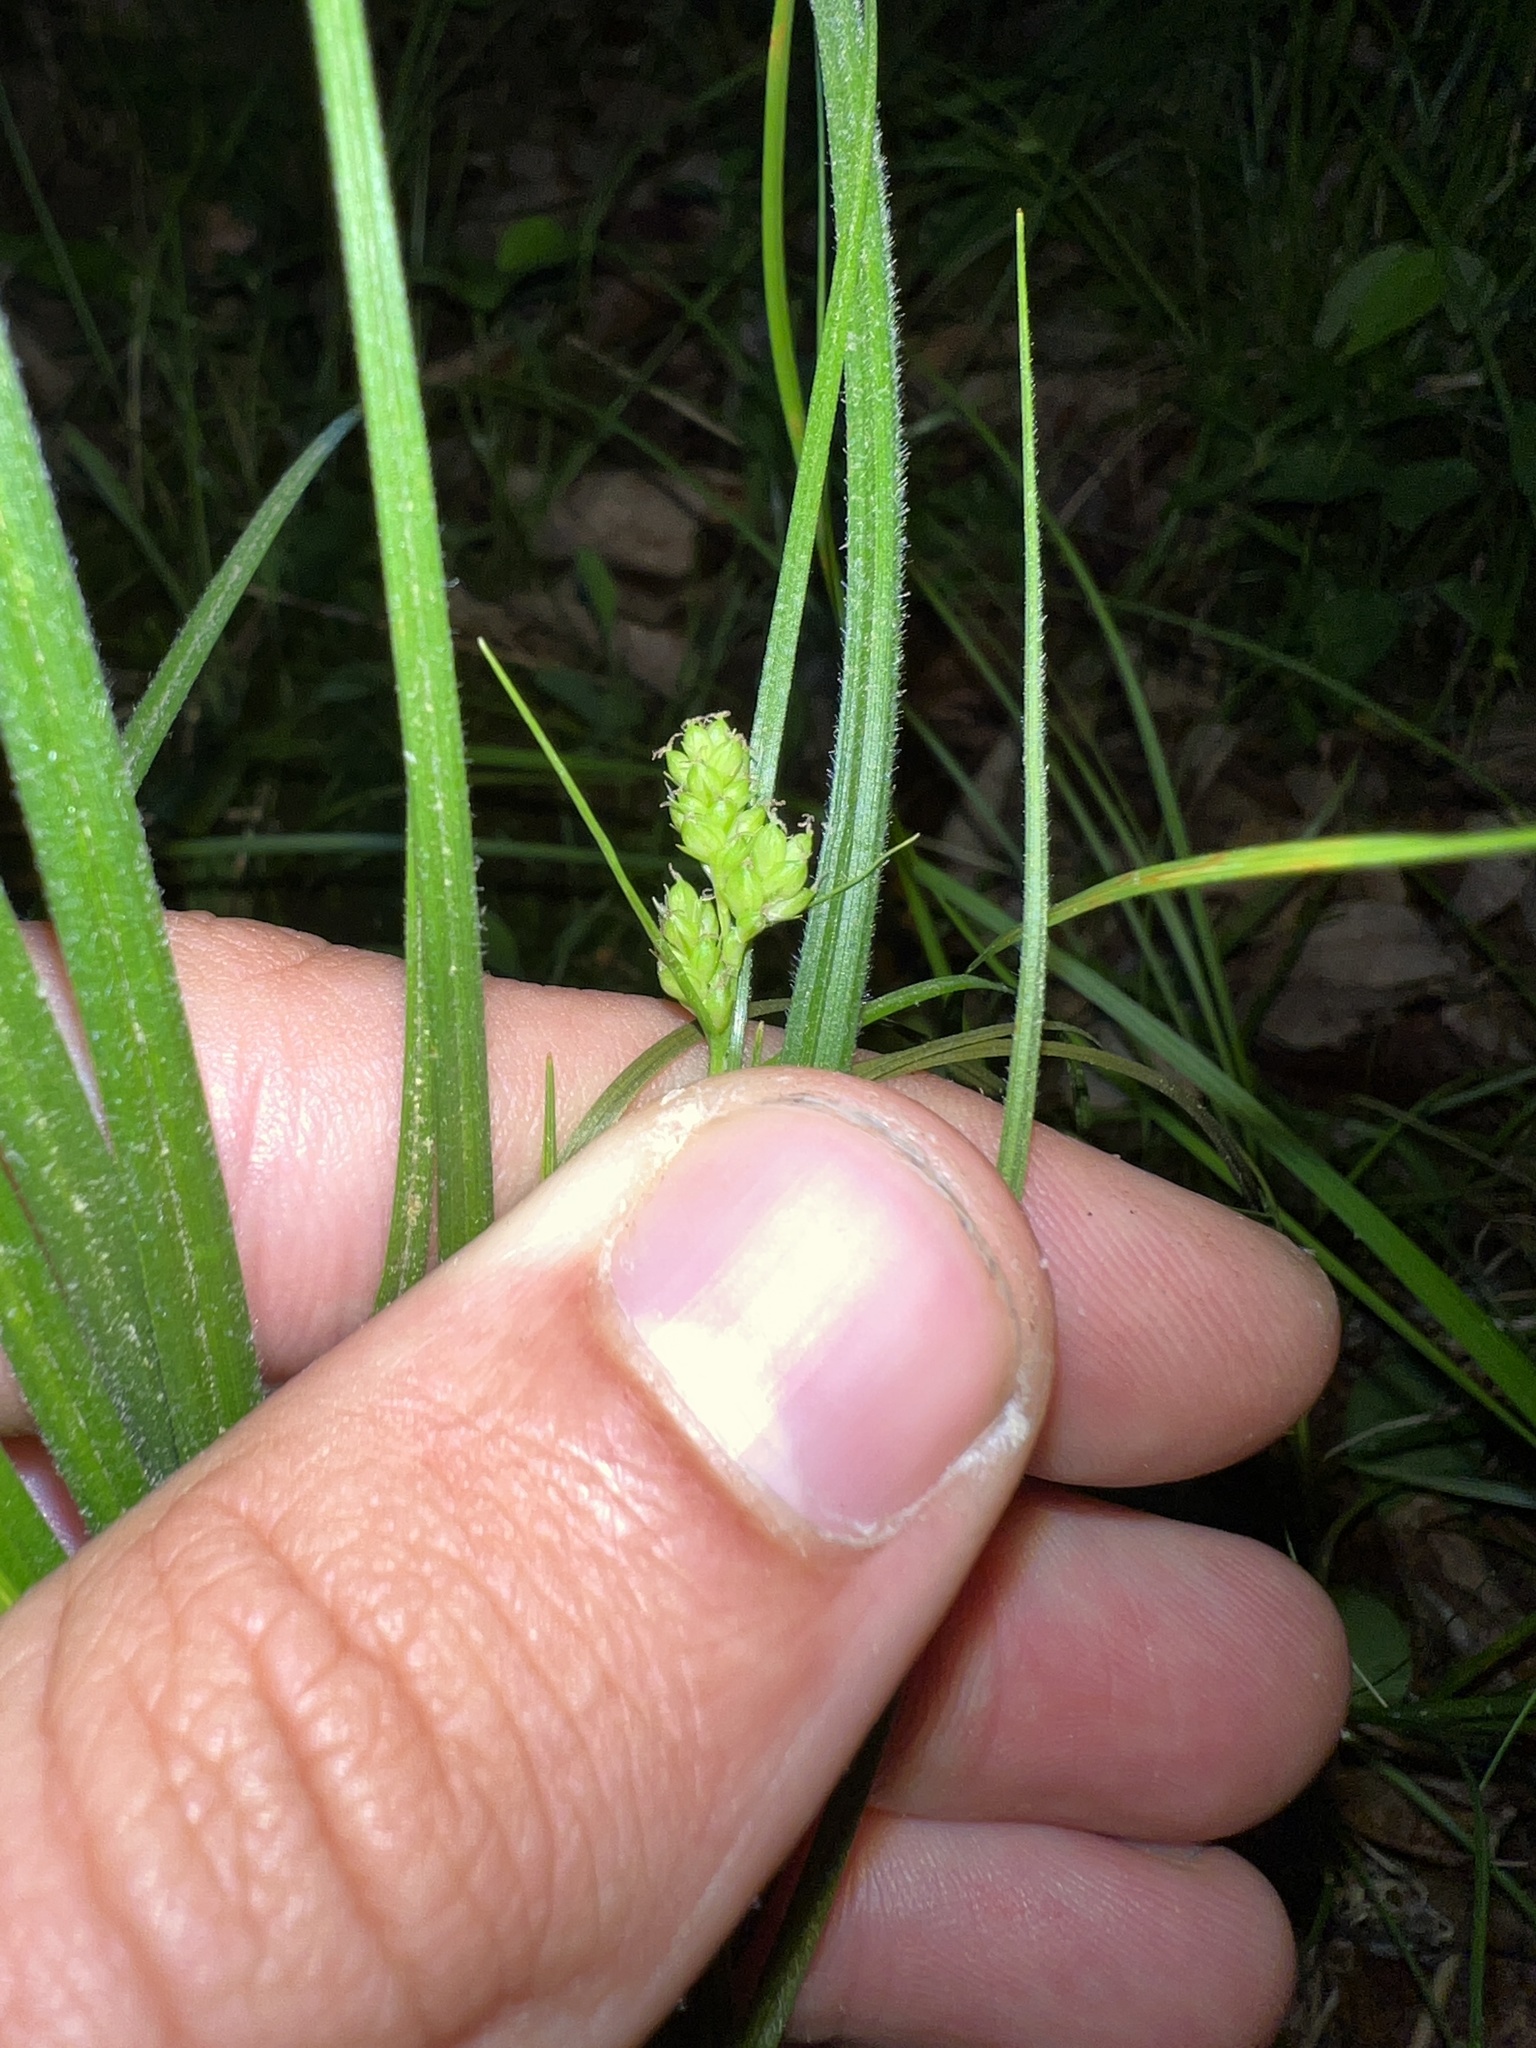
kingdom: Plantae
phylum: Tracheophyta
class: Liliopsida
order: Poales
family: Cyperaceae
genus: Carex
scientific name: Carex hirsutella
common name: Fuzzy wuzzy sedge
